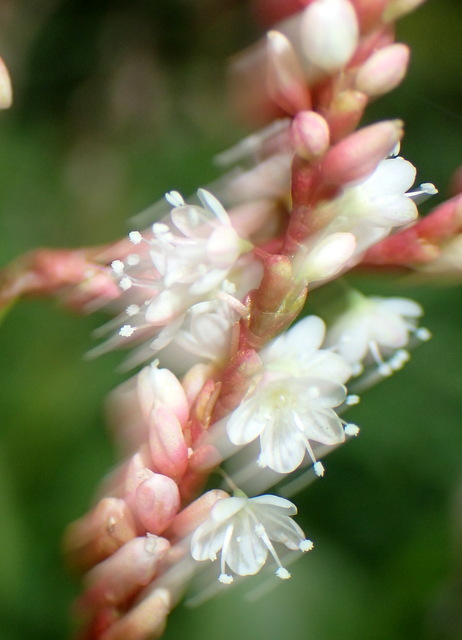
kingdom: Plantae
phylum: Tracheophyta
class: Magnoliopsida
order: Caryophyllales
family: Polygonaceae
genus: Persicaria
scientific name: Persicaria hydropiperoides
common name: Swamp smartweed
